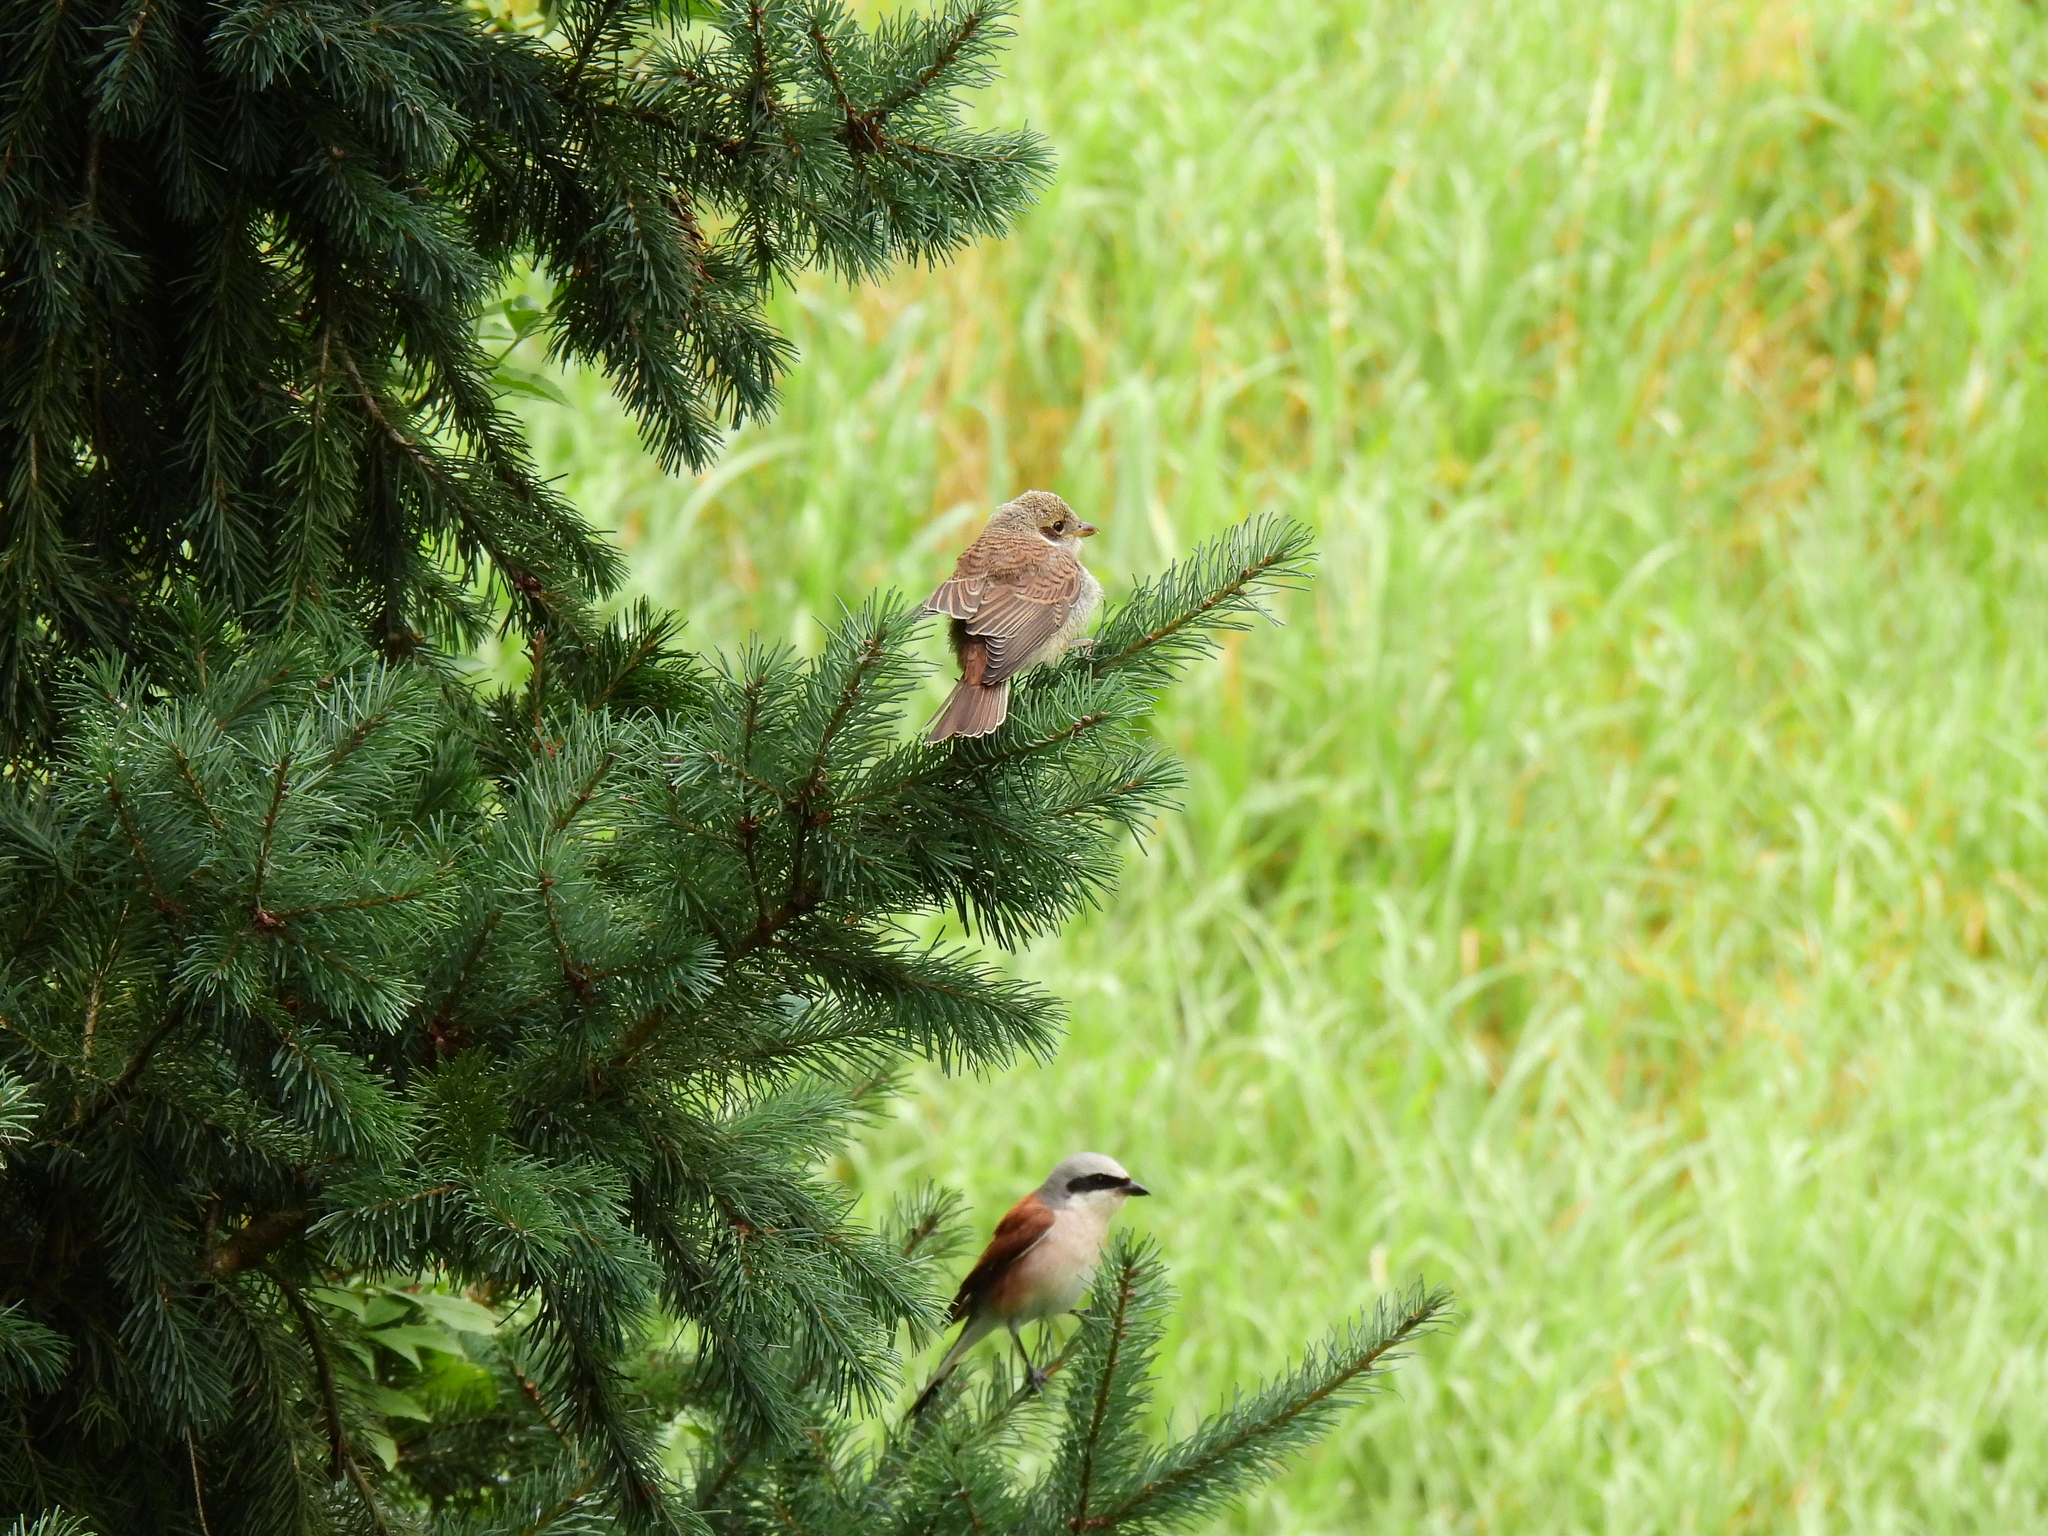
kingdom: Animalia
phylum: Chordata
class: Aves
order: Passeriformes
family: Laniidae
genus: Lanius
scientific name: Lanius collurio
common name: Red-backed shrike
